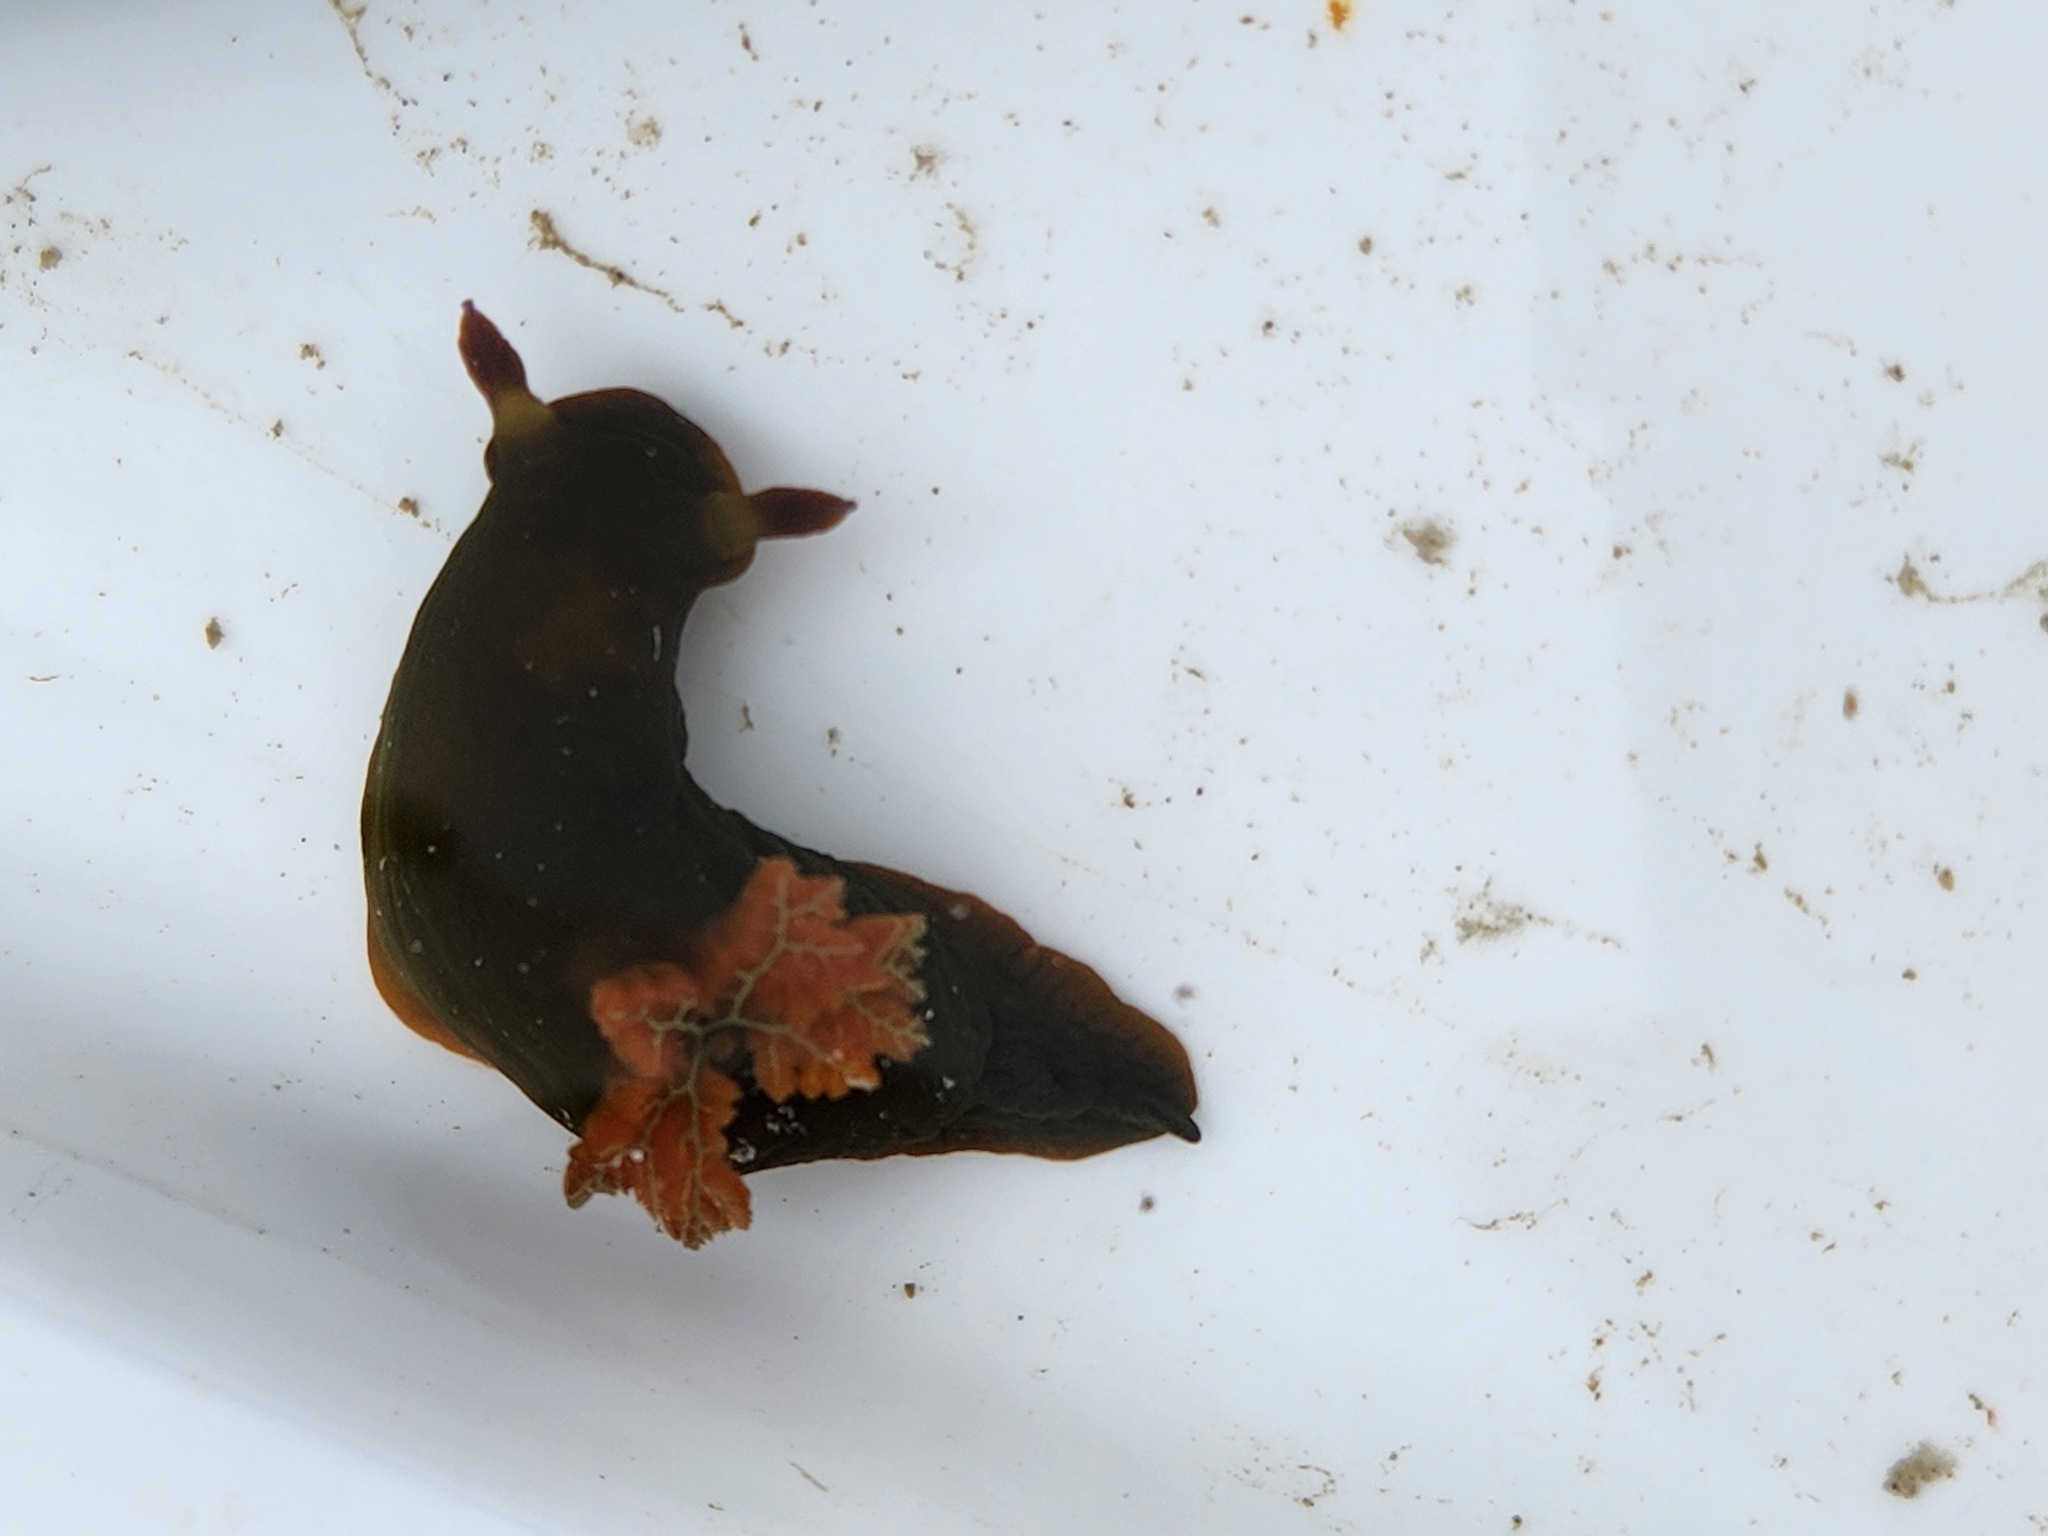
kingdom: Animalia
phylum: Mollusca
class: Gastropoda
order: Nudibranchia
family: Polyceridae
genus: Tambja
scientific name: Tambja dracomus
